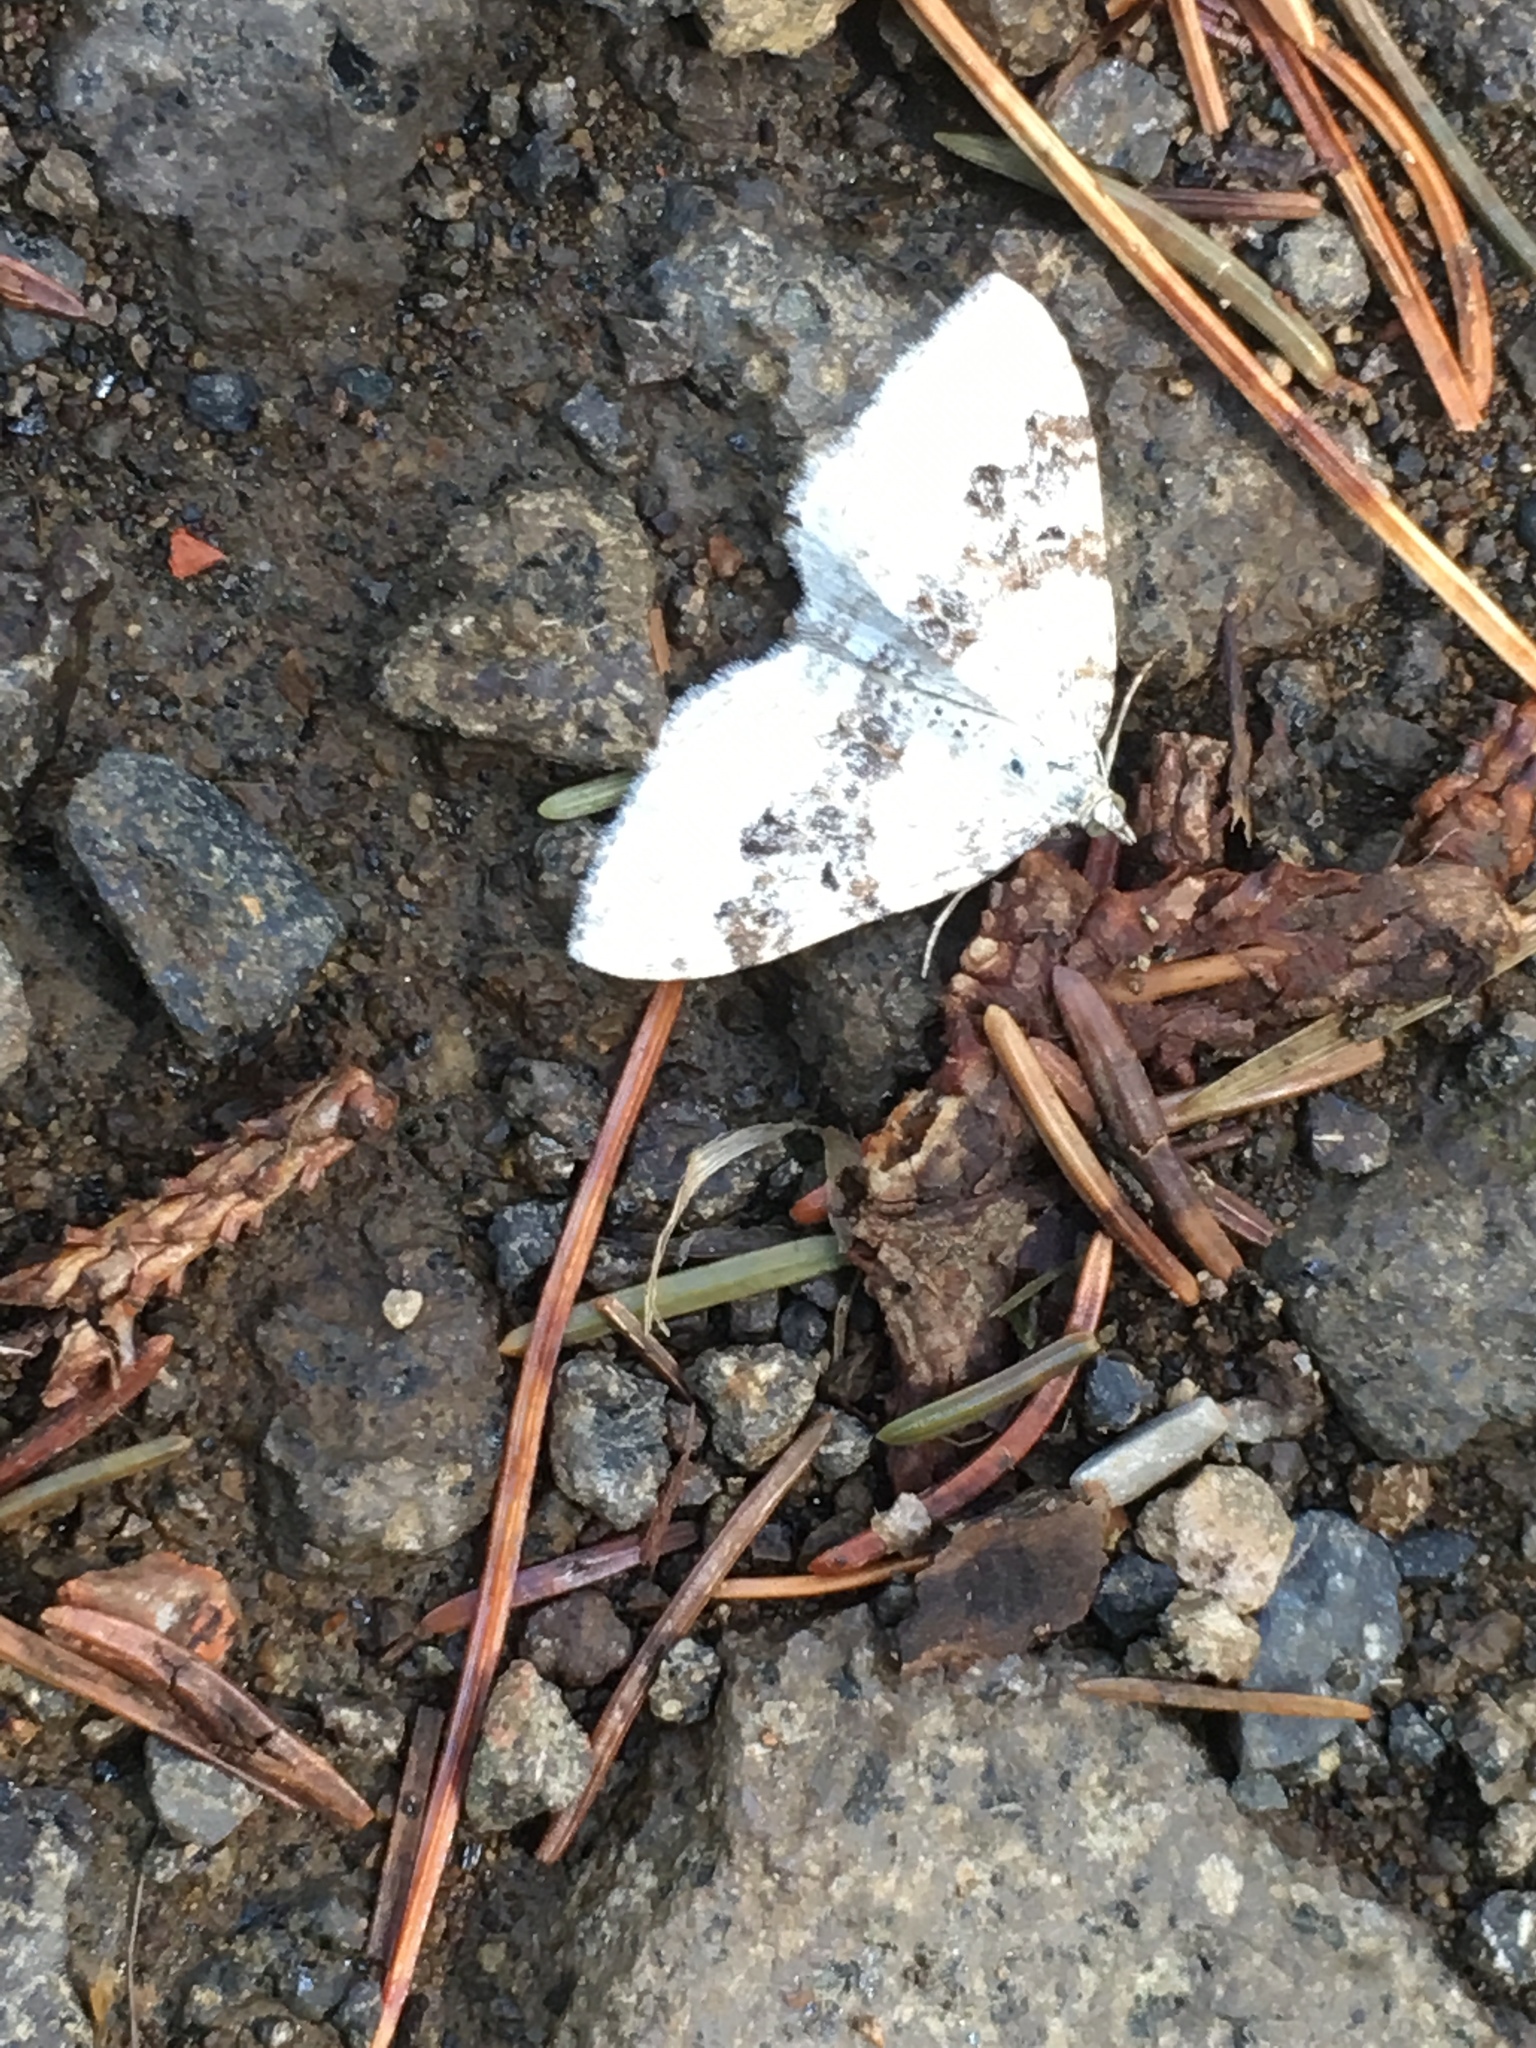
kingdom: Animalia
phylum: Arthropoda
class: Insecta
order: Lepidoptera
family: Geometridae
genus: Xanthorhoe
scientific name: Xanthorhoe montanata
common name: Silver-ground carpet
